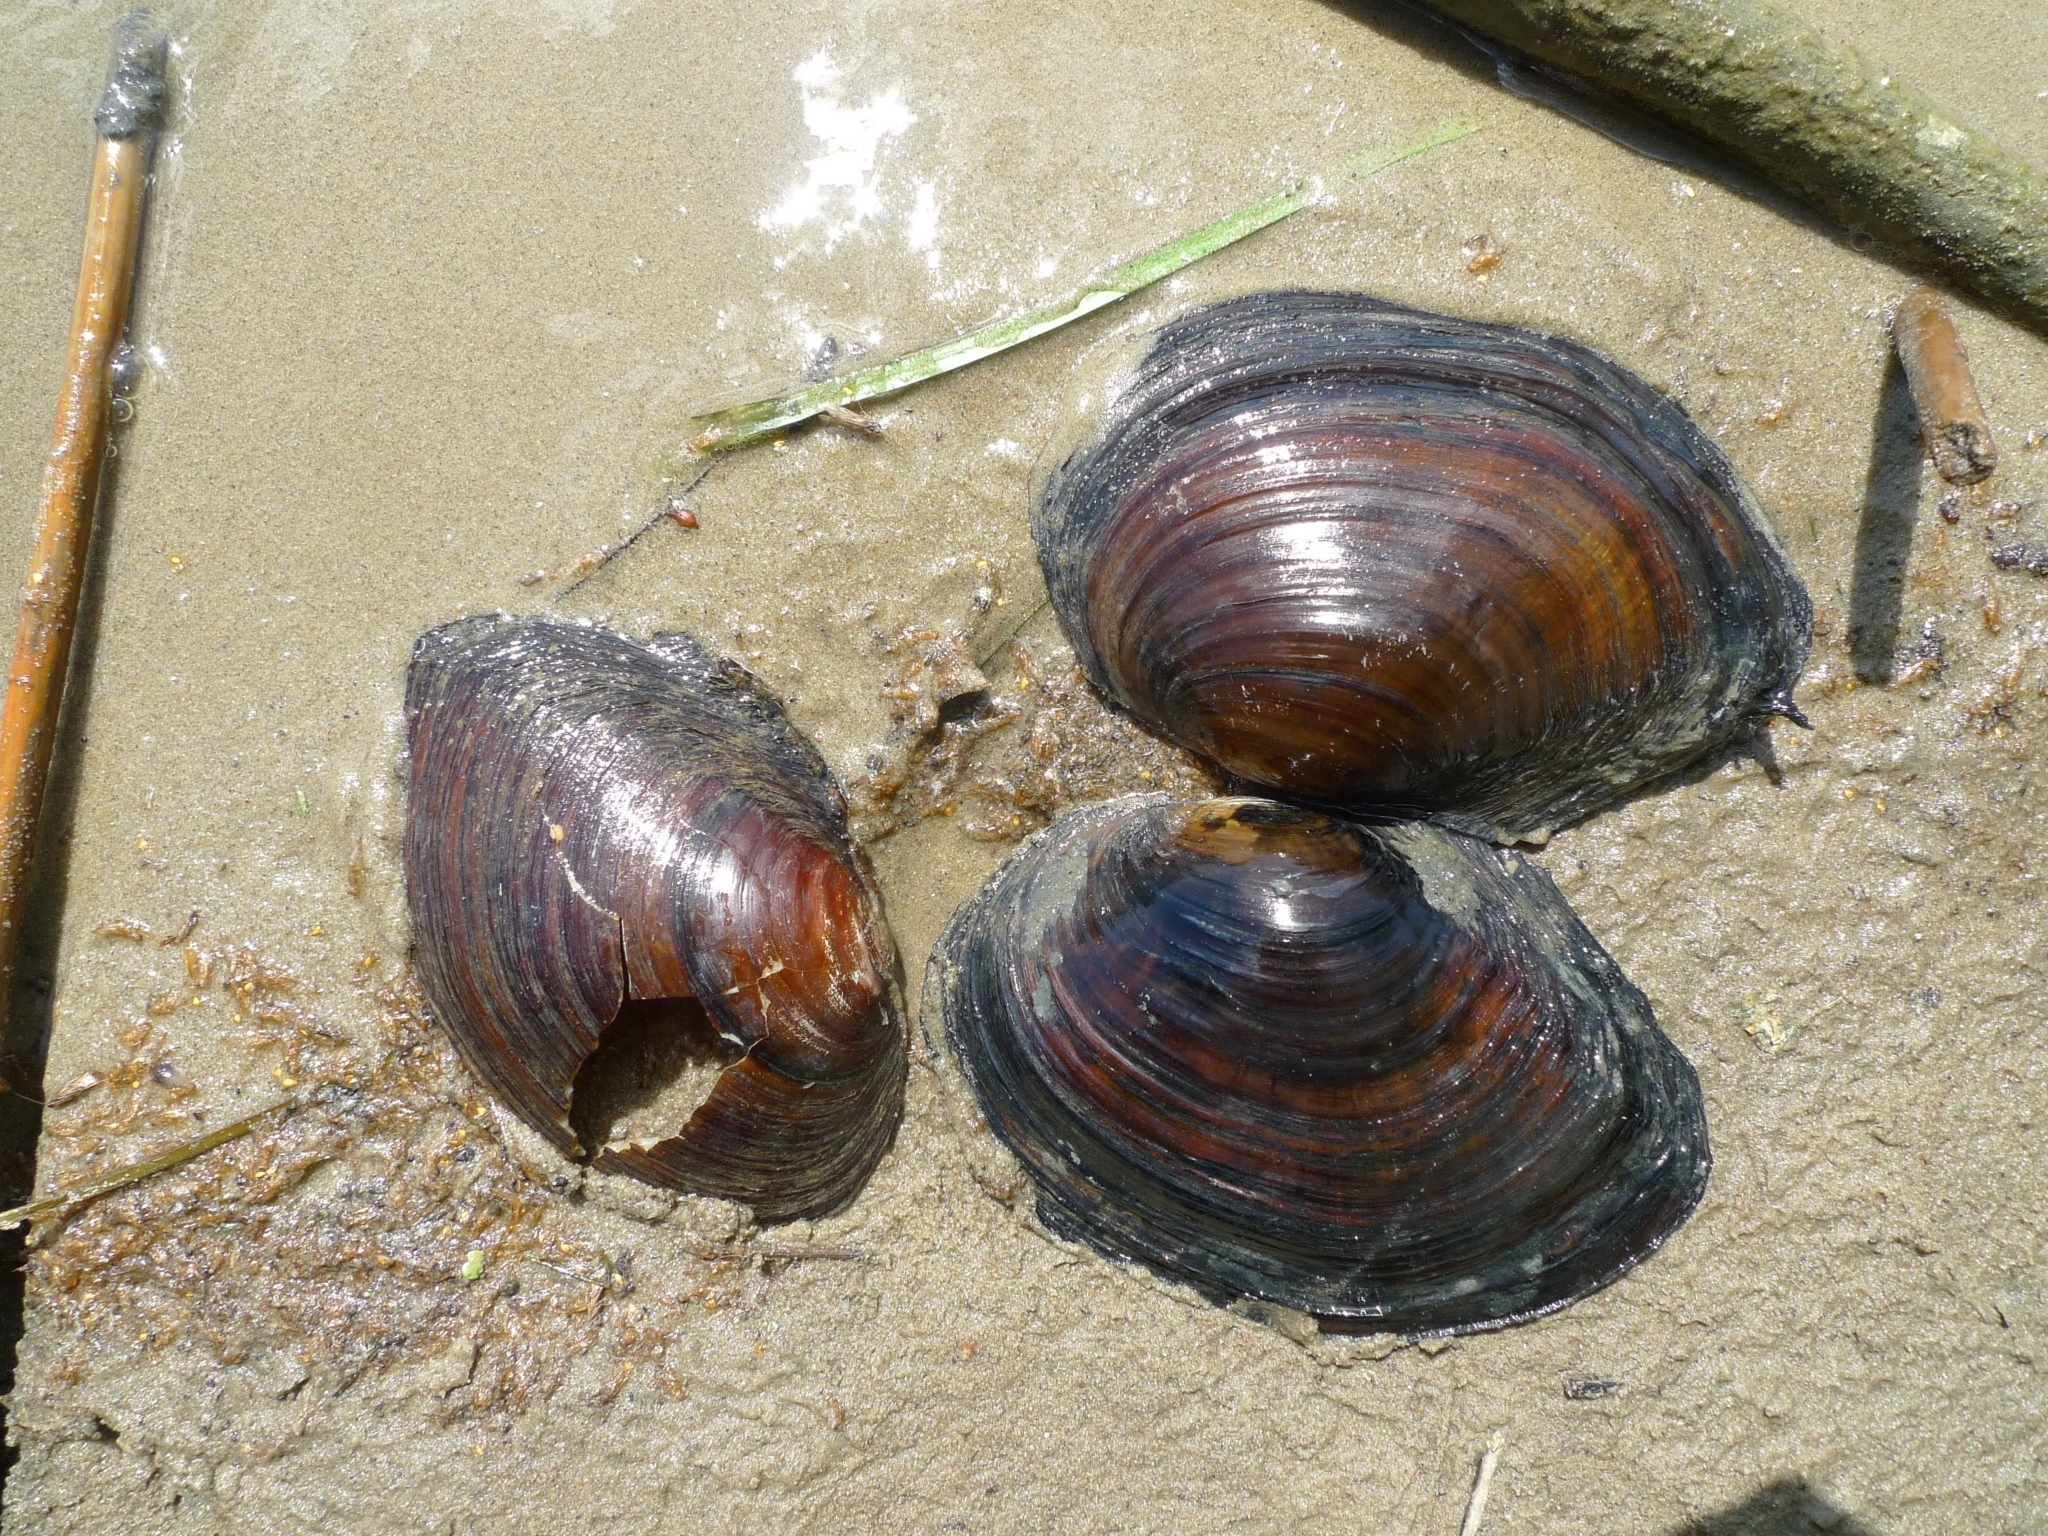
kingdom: Animalia
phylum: Mollusca
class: Bivalvia
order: Unionida
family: Unionidae
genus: Sinanodonta
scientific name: Sinanodonta woodiana
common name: Chinese pond mussel
